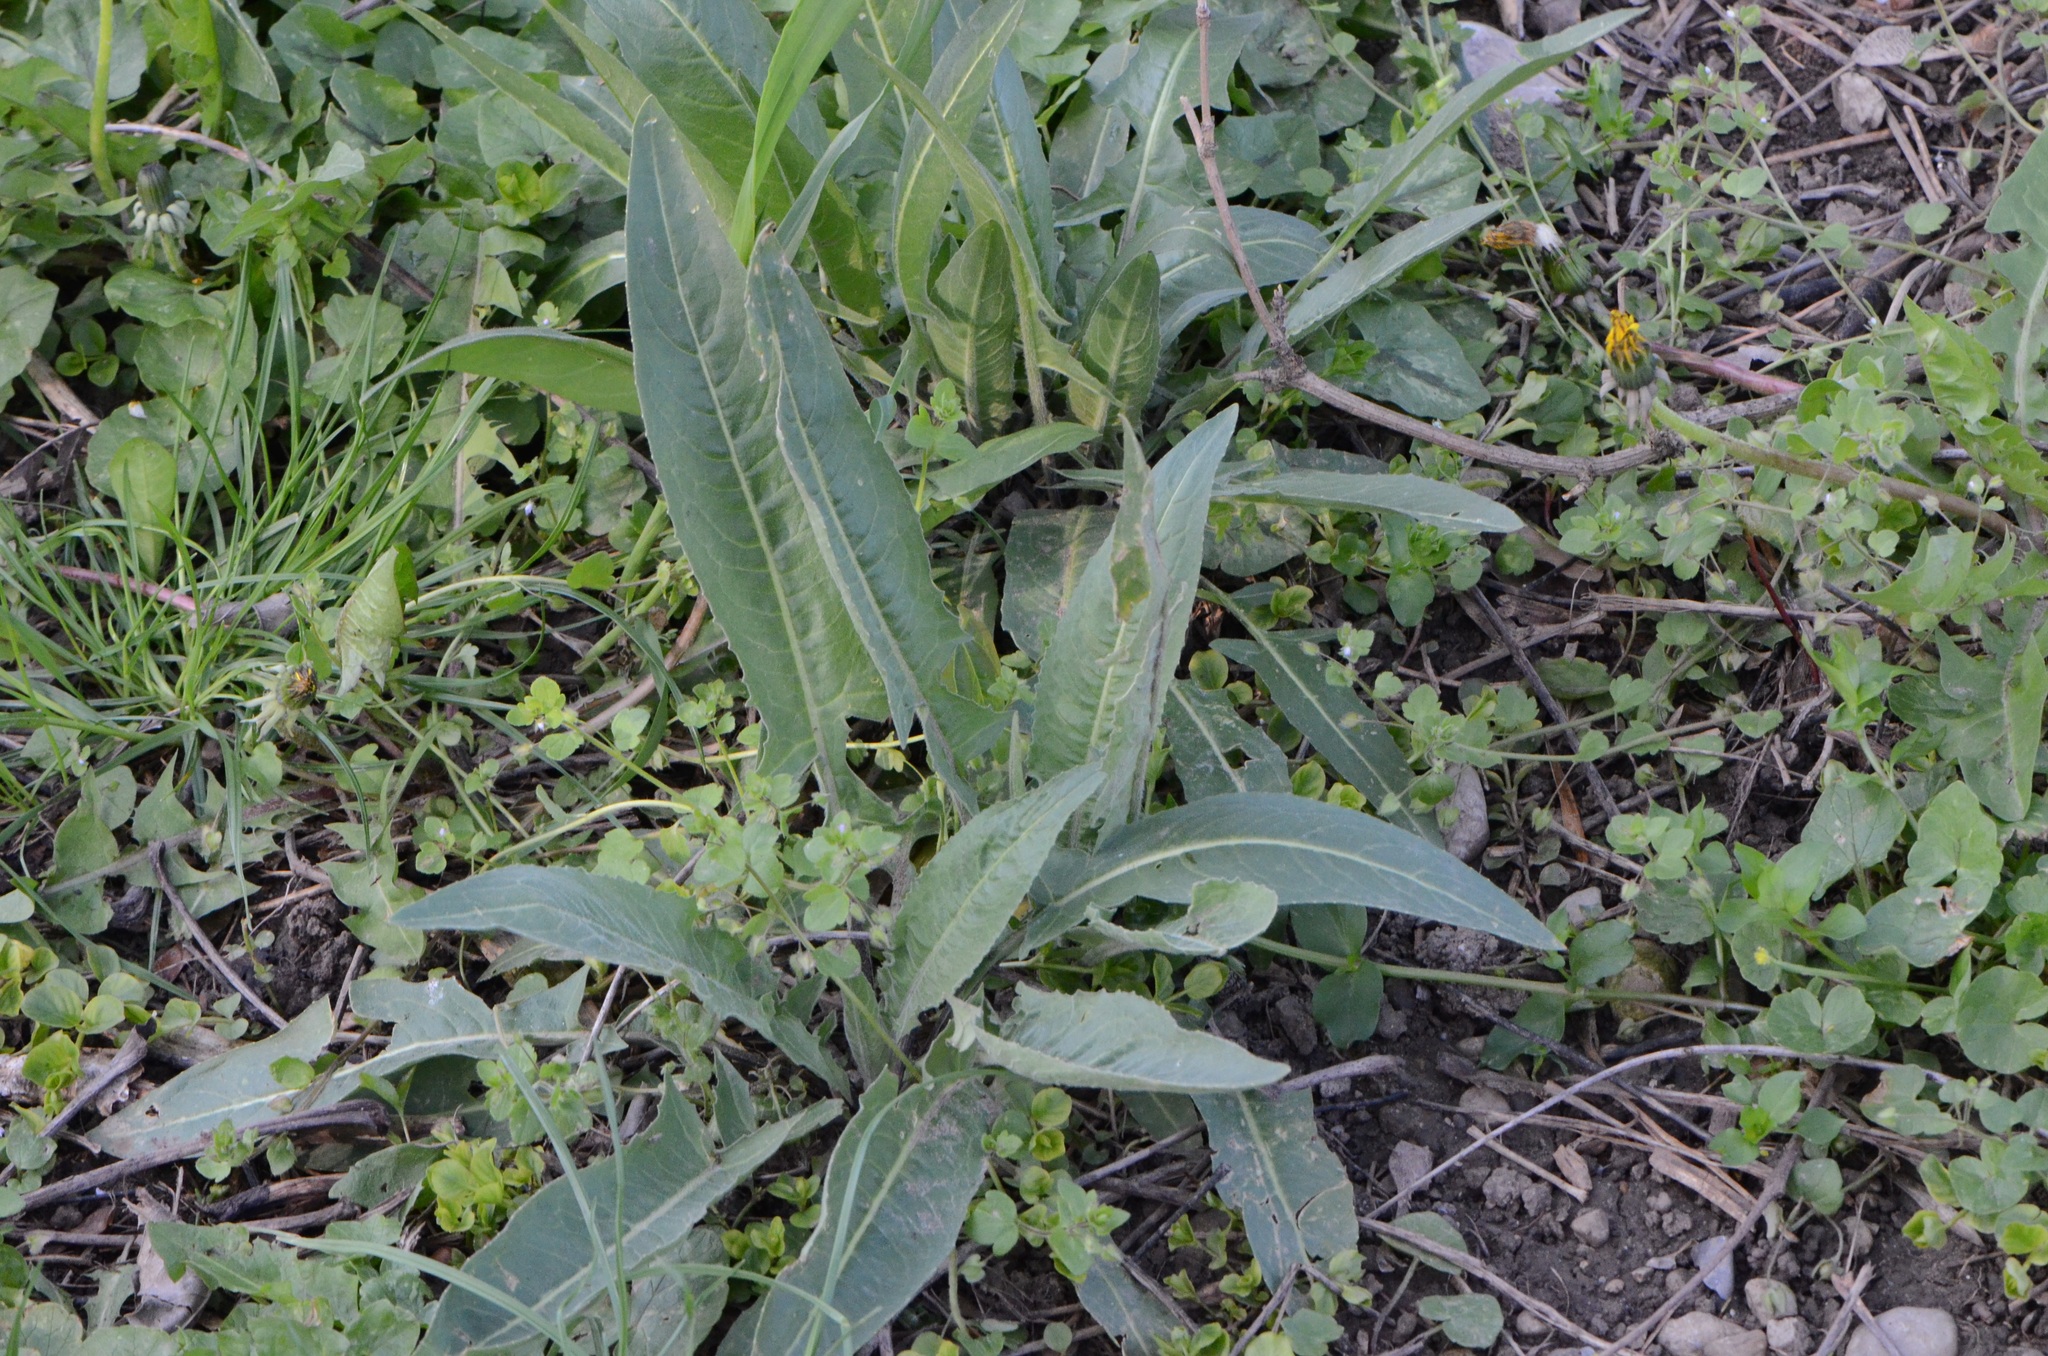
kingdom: Plantae
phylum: Tracheophyta
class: Magnoliopsida
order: Brassicales
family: Brassicaceae
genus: Bunias
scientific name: Bunias orientalis
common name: Warty-cabbage
